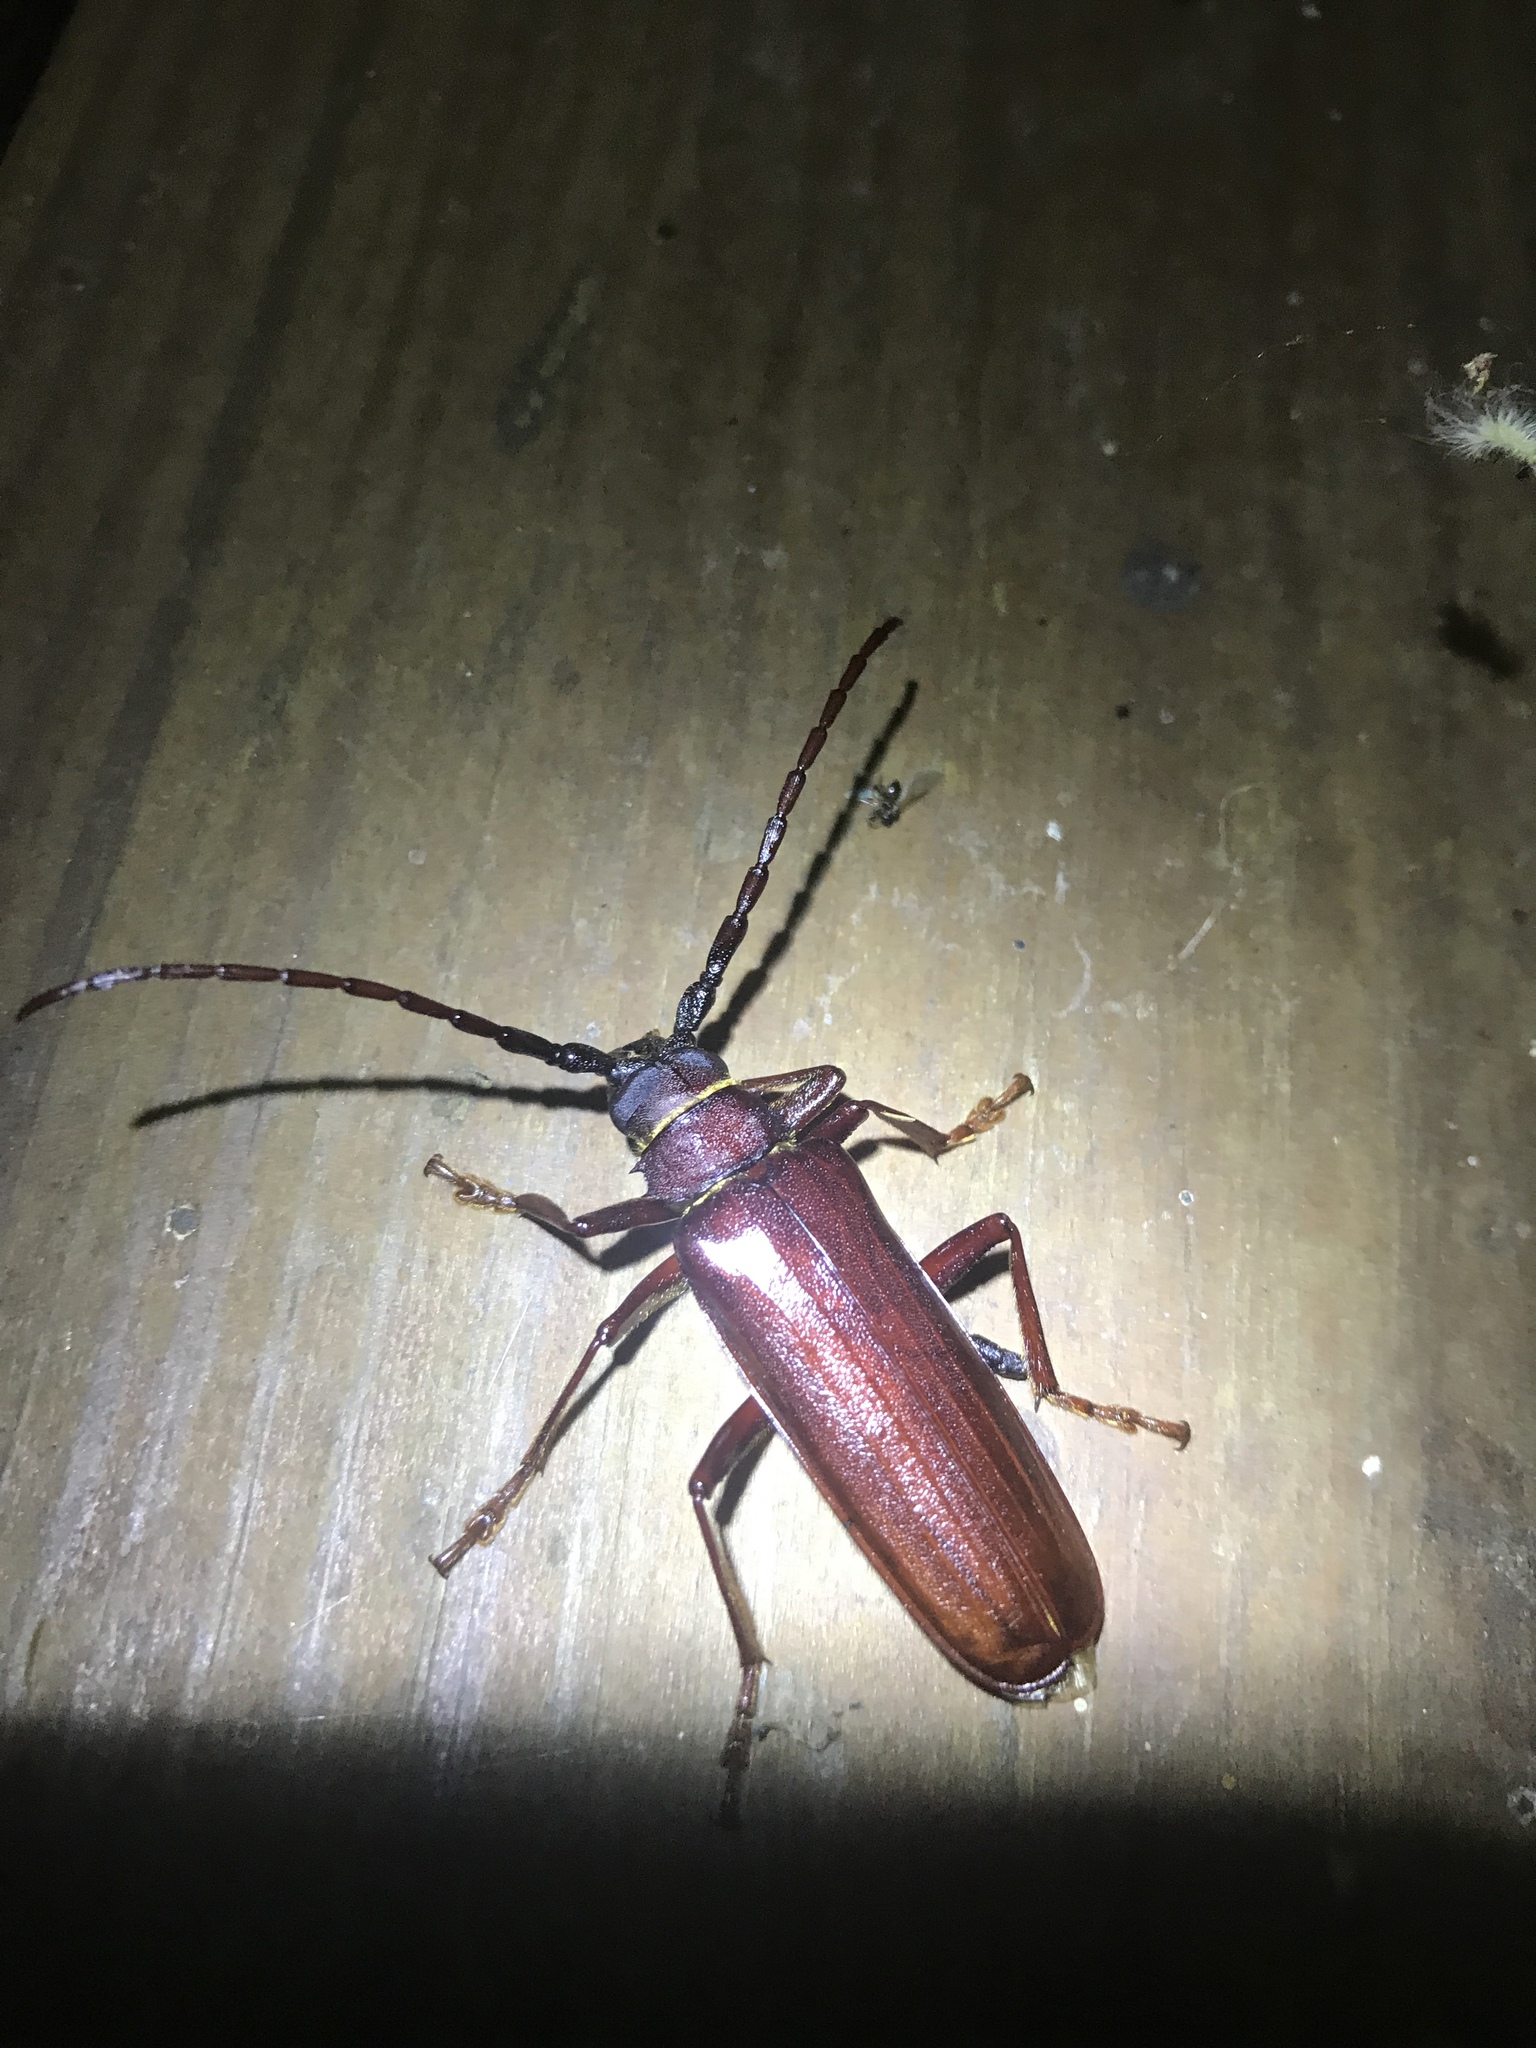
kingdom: Animalia
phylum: Arthropoda
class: Insecta
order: Coleoptera
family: Cerambycidae
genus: Orthosoma
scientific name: Orthosoma brunneum
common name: Brown prionid beetle
